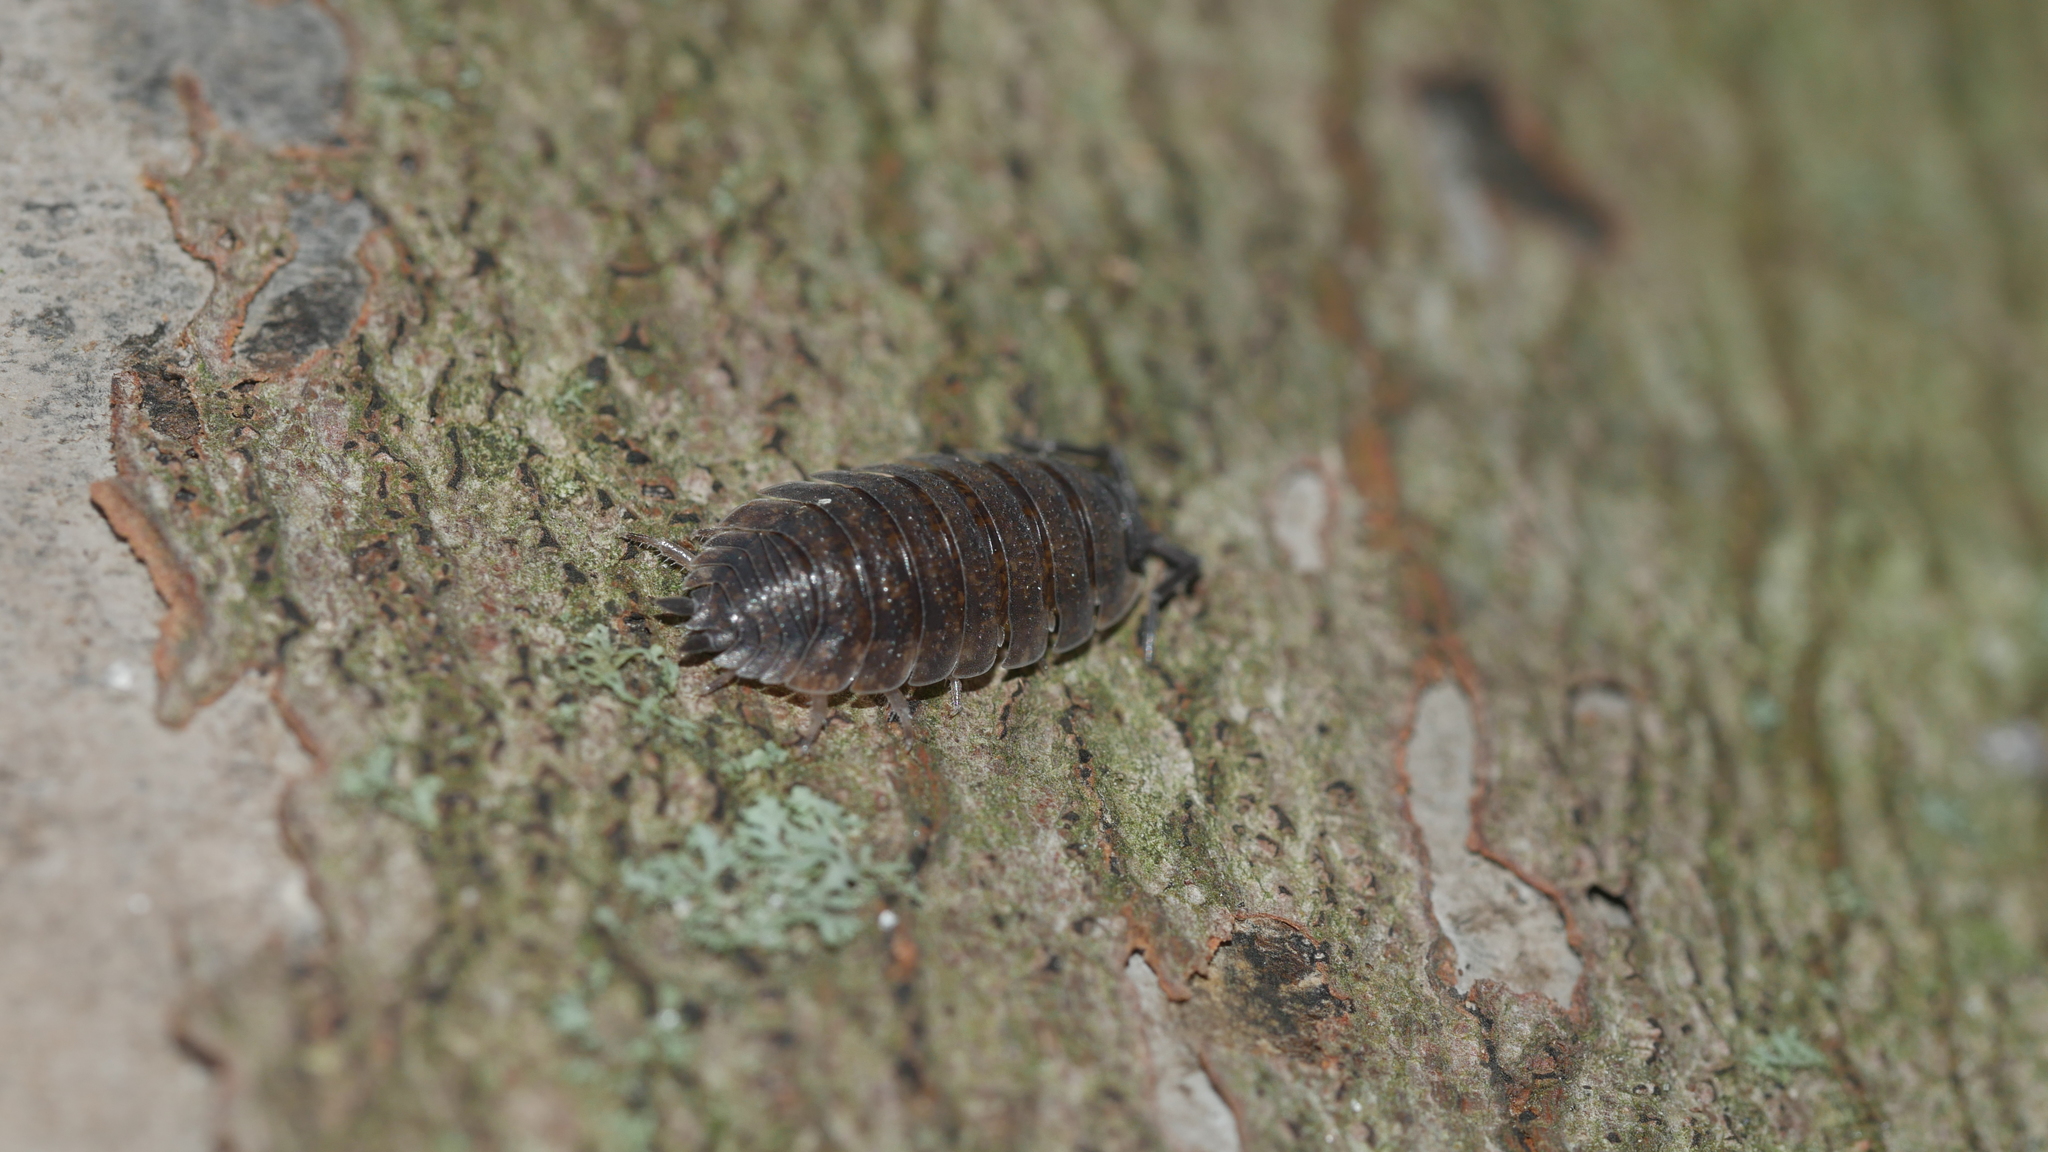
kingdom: Animalia
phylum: Arthropoda
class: Malacostraca
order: Isopoda
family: Porcellionidae
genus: Porcellio
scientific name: Porcellio scaber
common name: Common rough woodlouse
